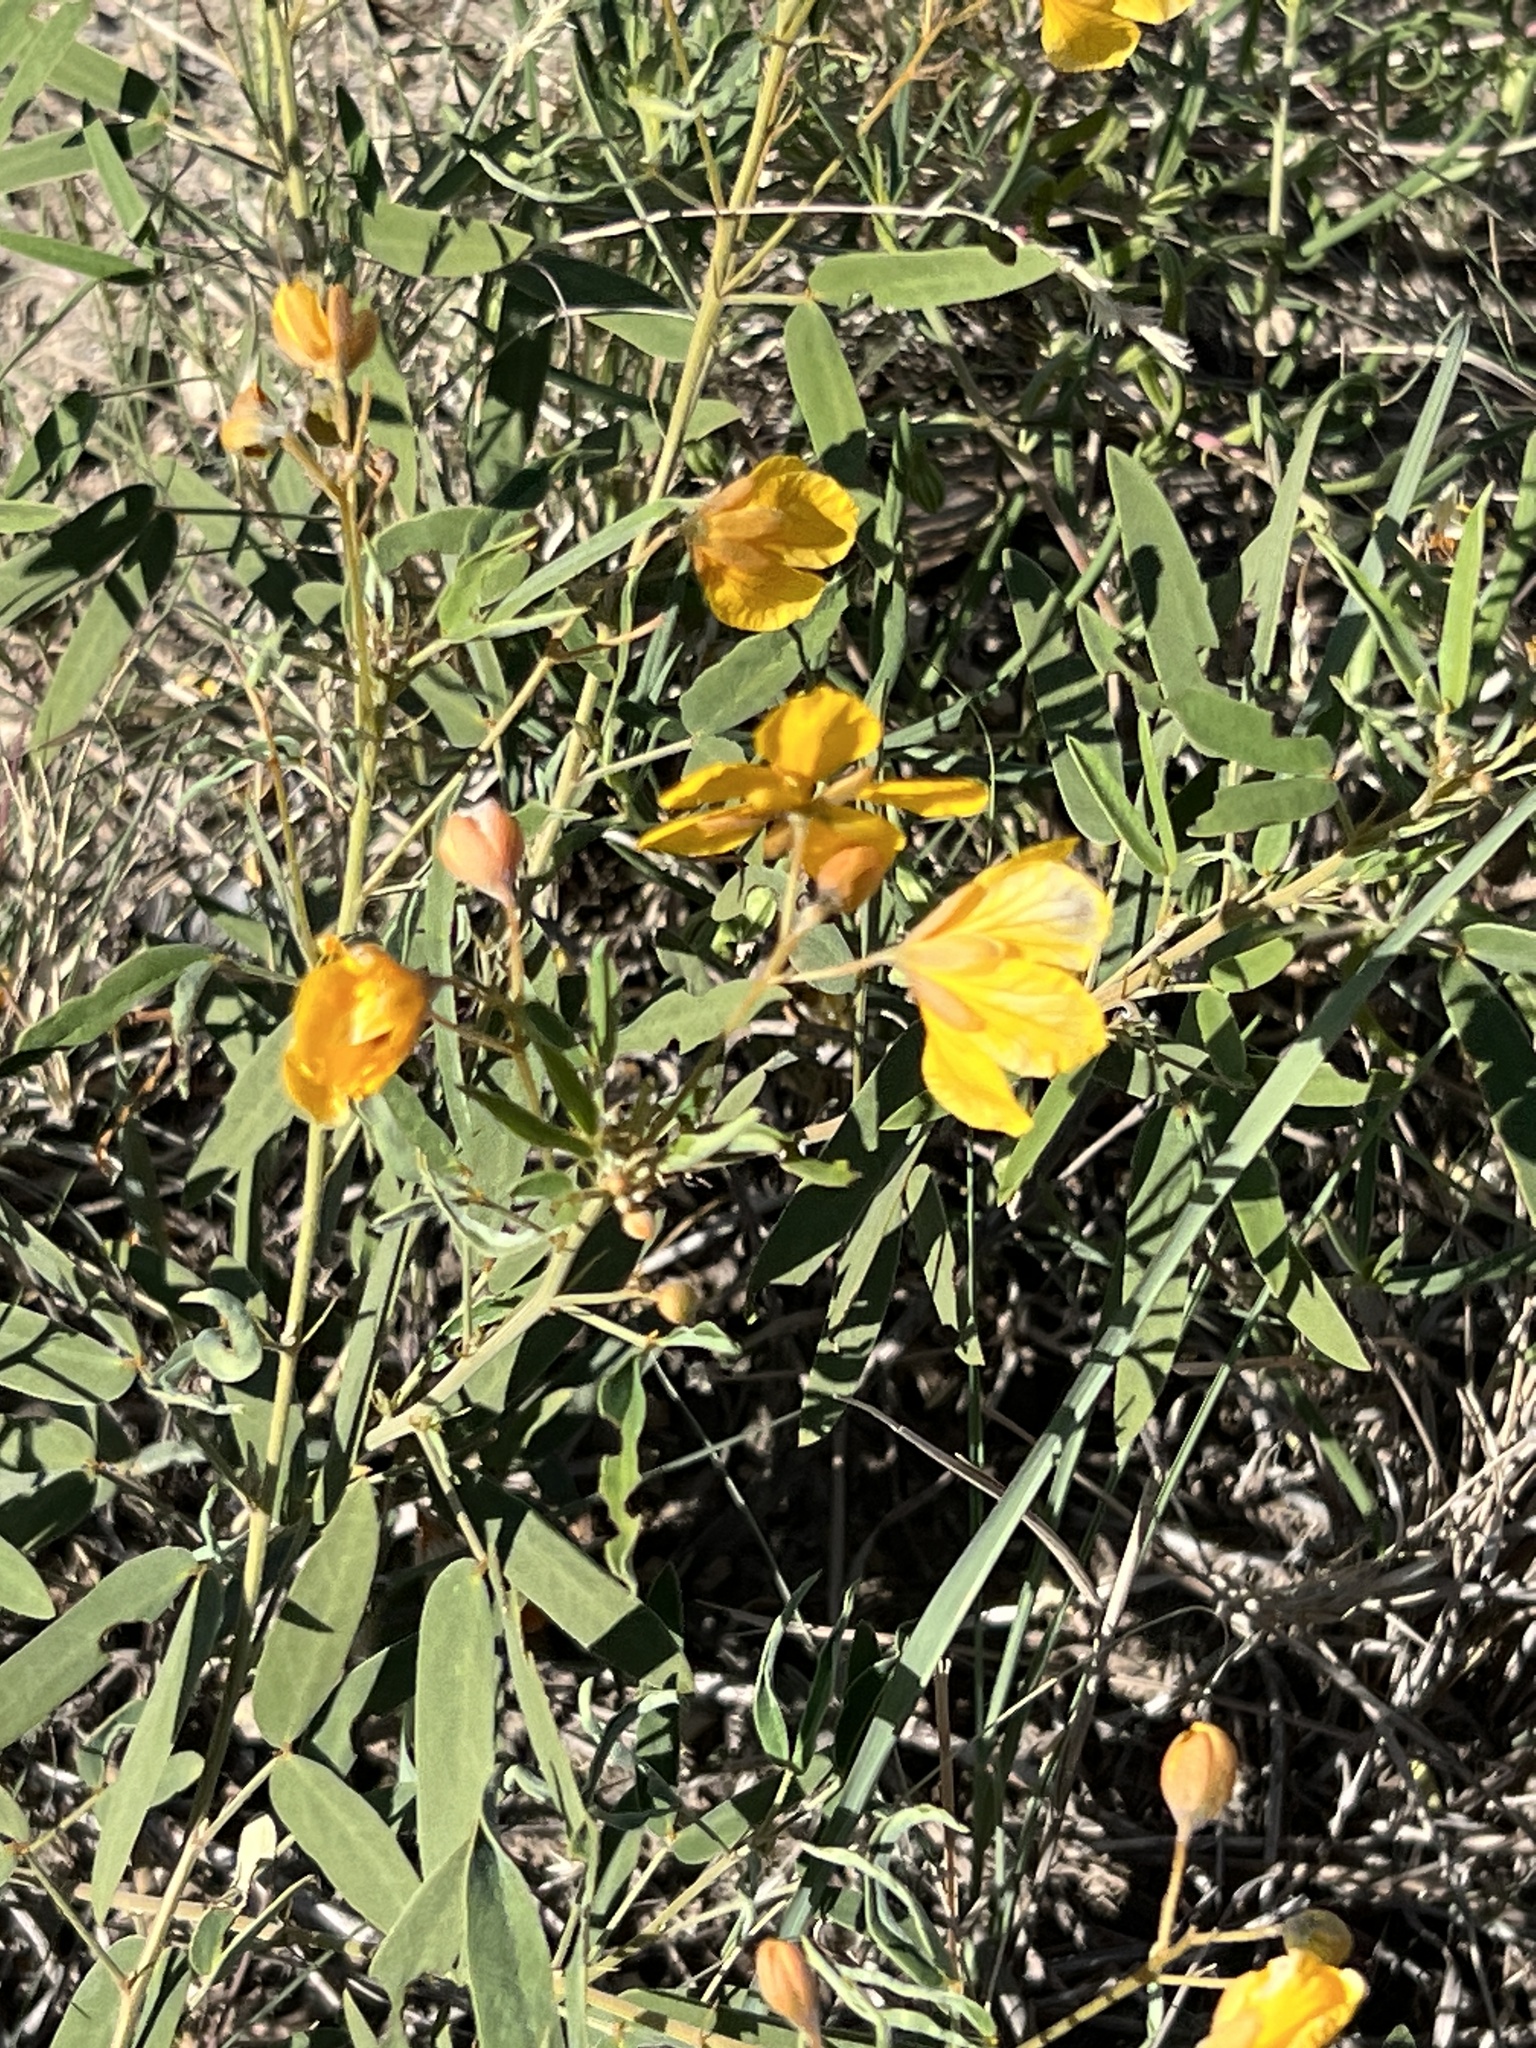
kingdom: Plantae
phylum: Tracheophyta
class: Magnoliopsida
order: Fabales
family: Fabaceae
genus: Senna
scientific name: Senna roemeriana
